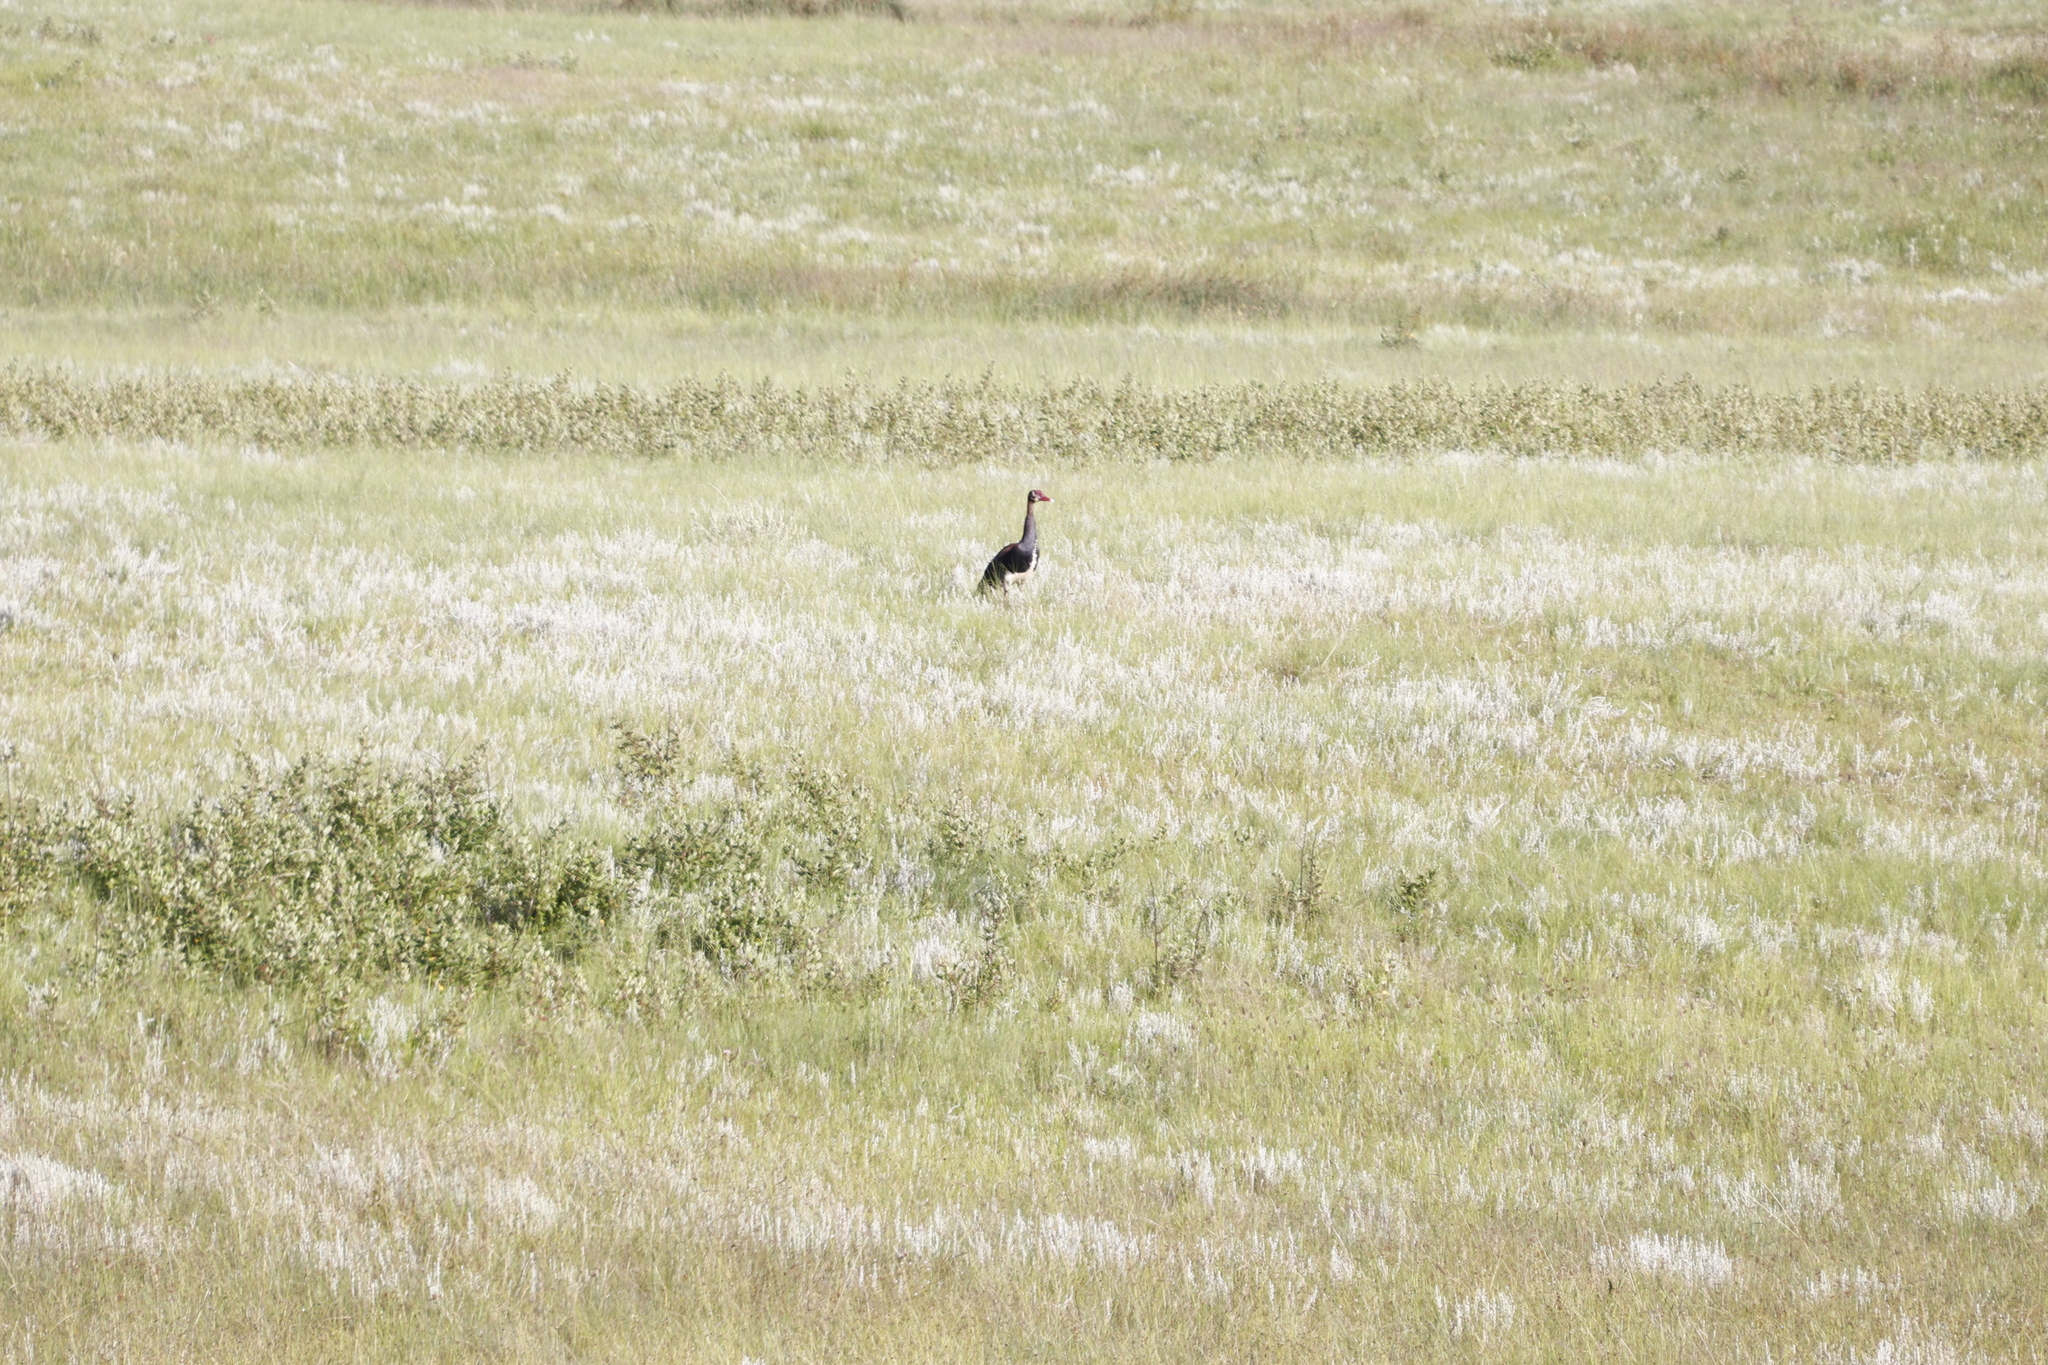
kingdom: Animalia
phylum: Chordata
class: Aves
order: Anseriformes
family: Anatidae
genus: Plectropterus
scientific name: Plectropterus gambensis
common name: Spur-winged goose
